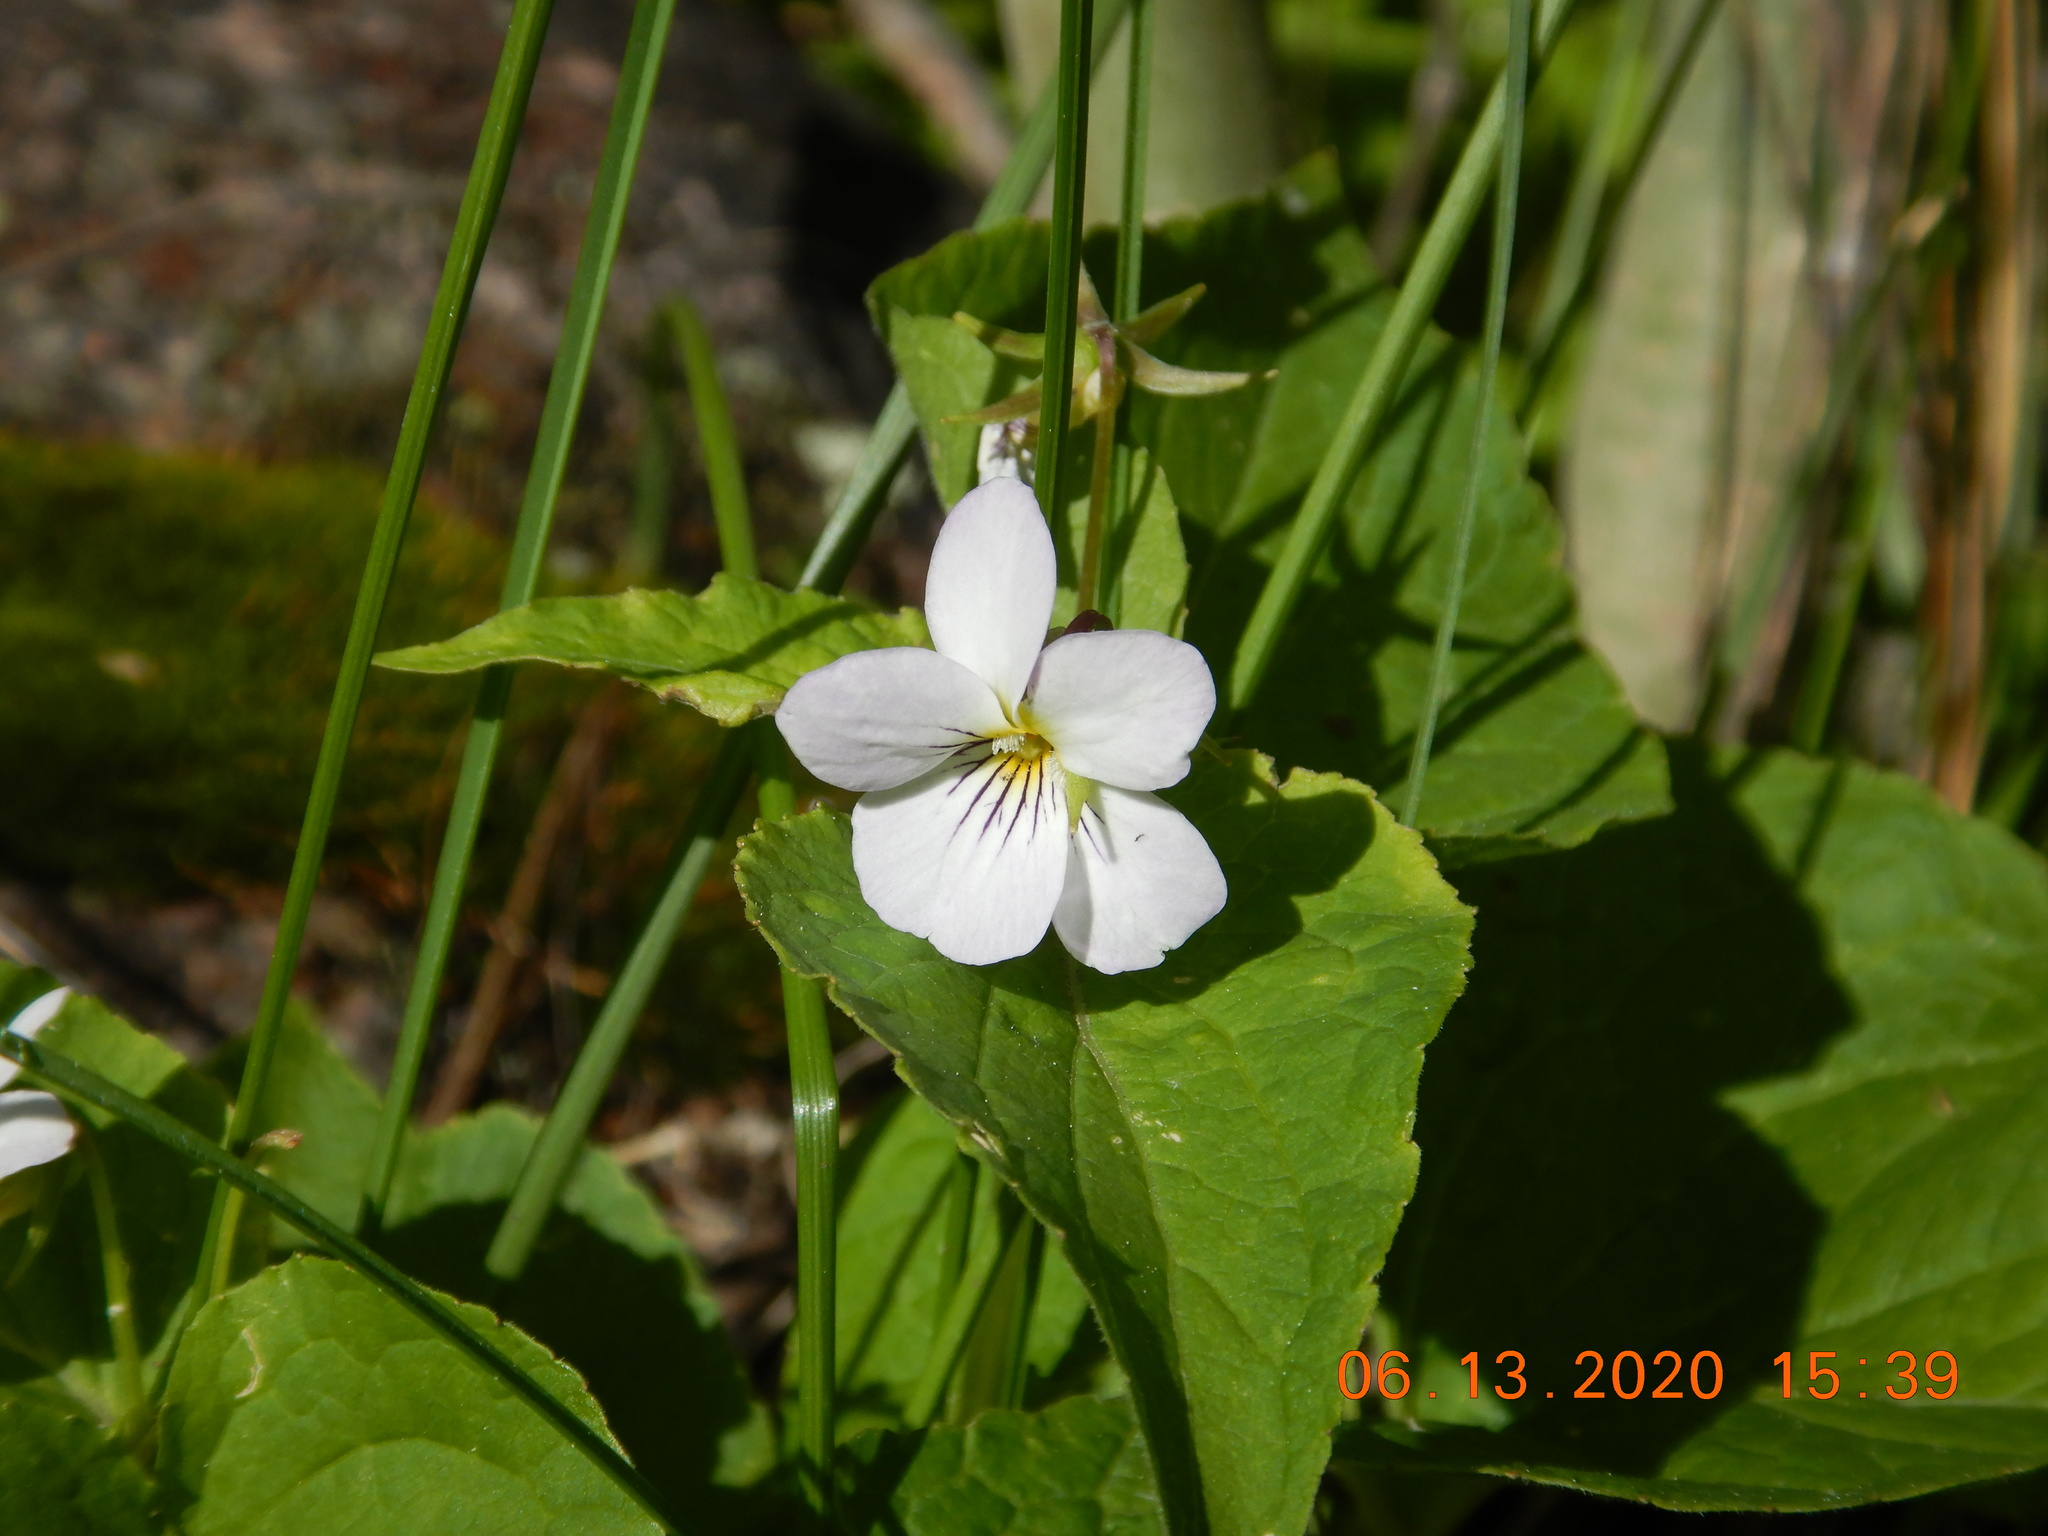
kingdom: Plantae
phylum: Tracheophyta
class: Magnoliopsida
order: Malpighiales
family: Violaceae
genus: Viola
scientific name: Viola canadensis
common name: Canada violet
